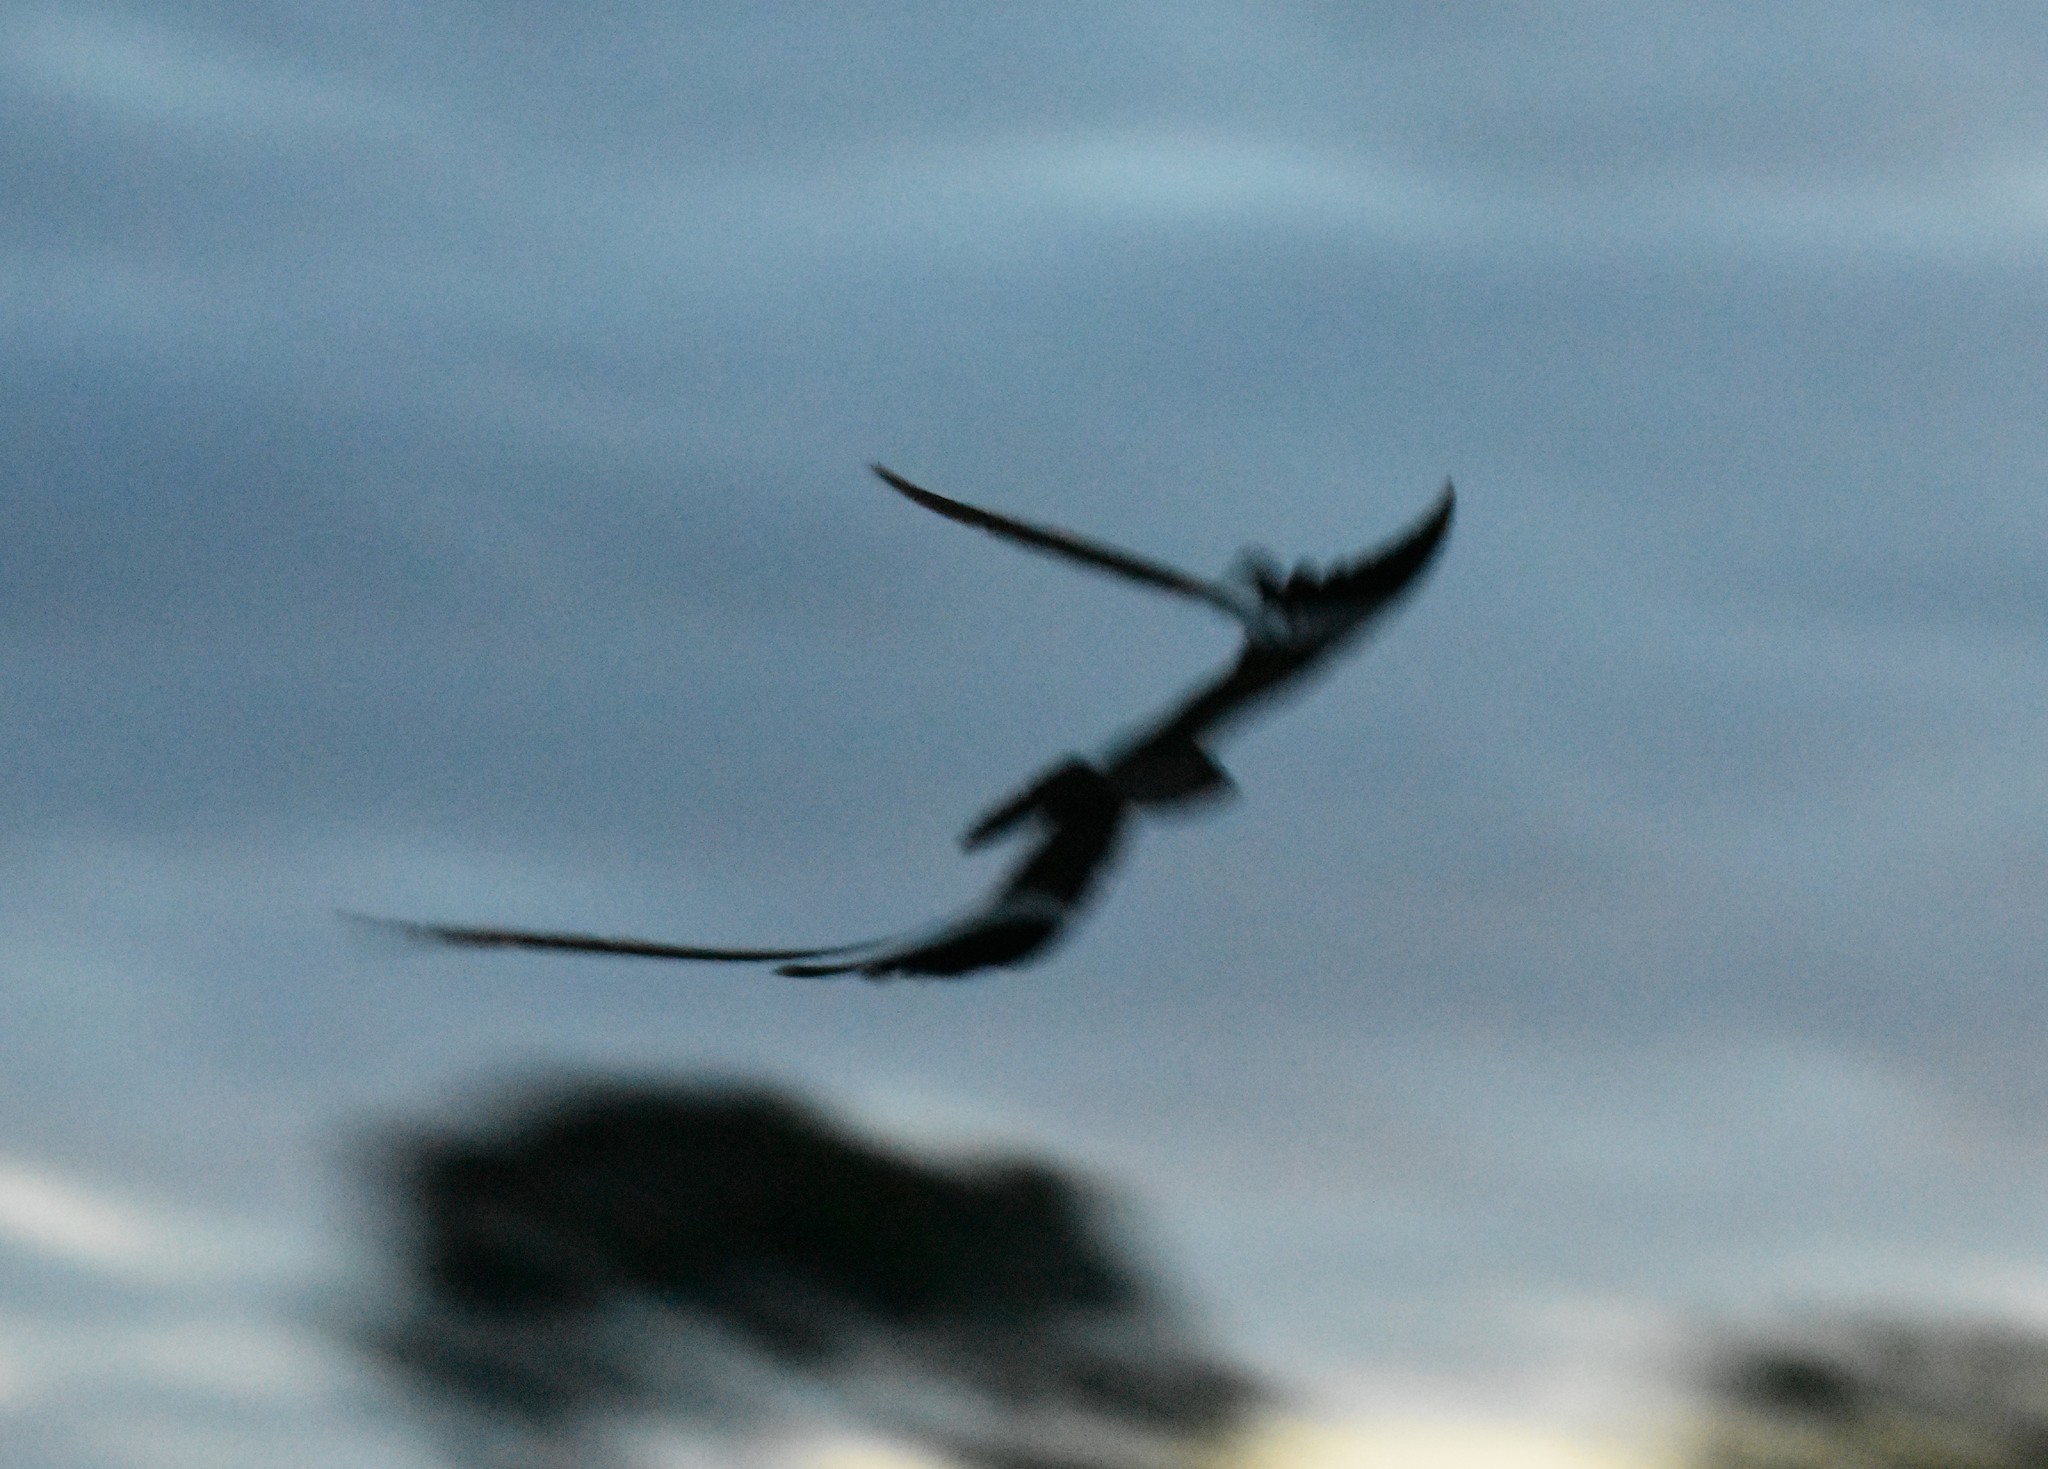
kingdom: Animalia
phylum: Chordata
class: Aves
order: Caprimulgiformes
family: Caprimulgidae
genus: Caprimulgus
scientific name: Caprimulgus vexillarius
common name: Pennant-winged nightjar
